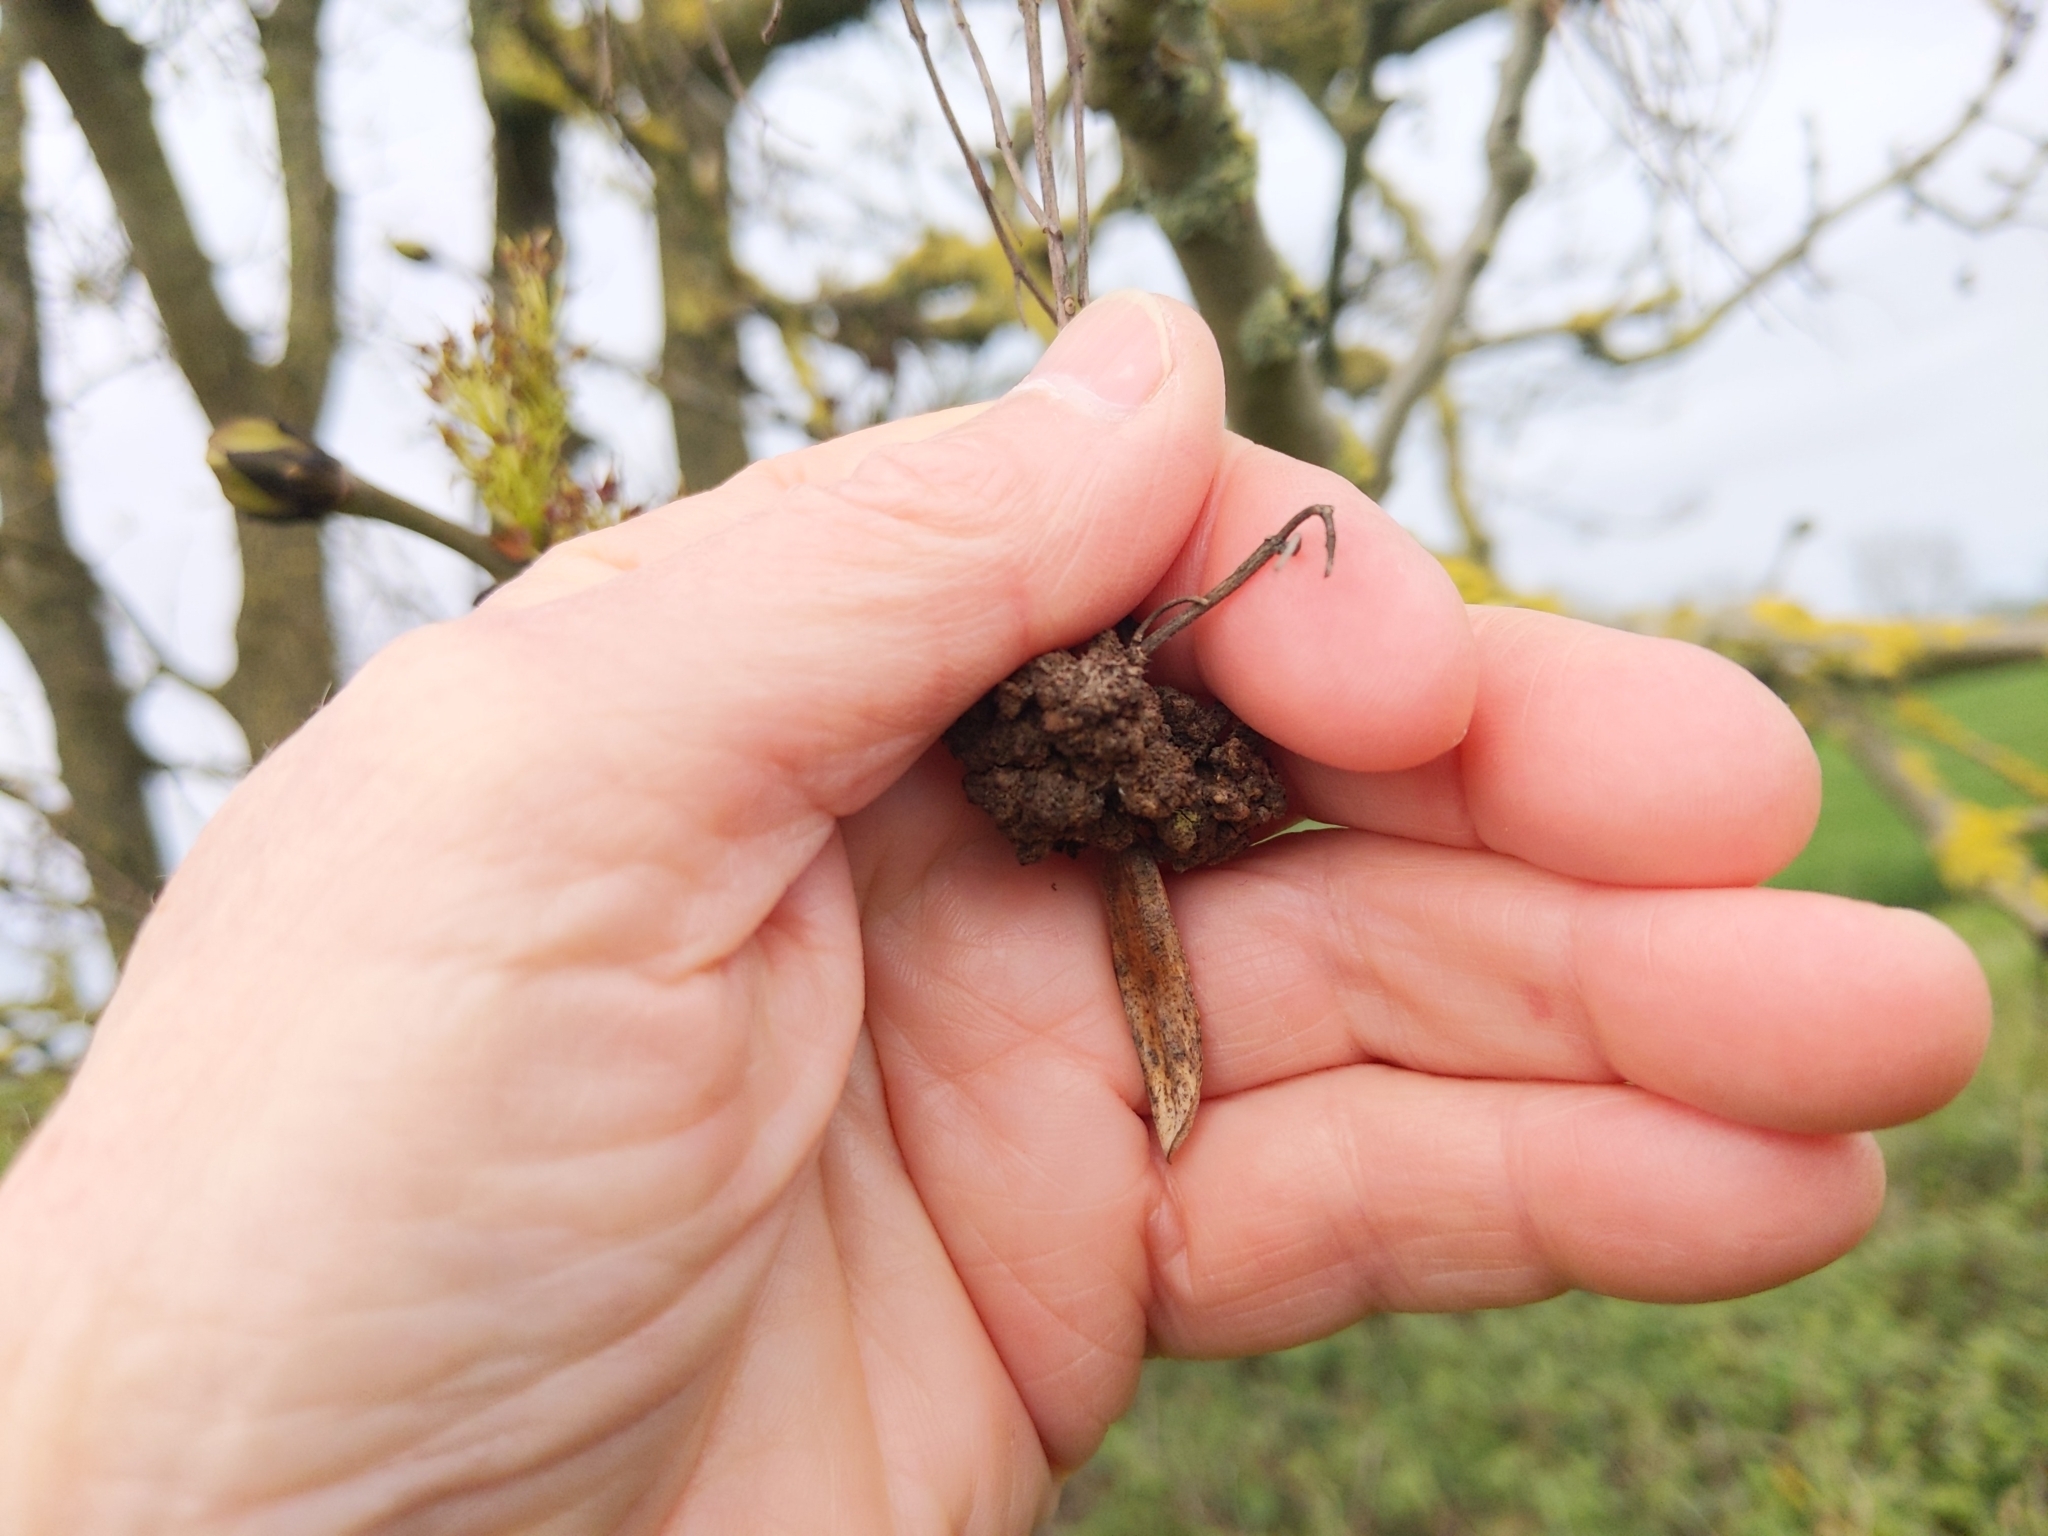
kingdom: Animalia
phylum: Arthropoda
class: Arachnida
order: Trombidiformes
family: Eriophyidae
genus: Aceria
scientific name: Aceria fraxinivora
